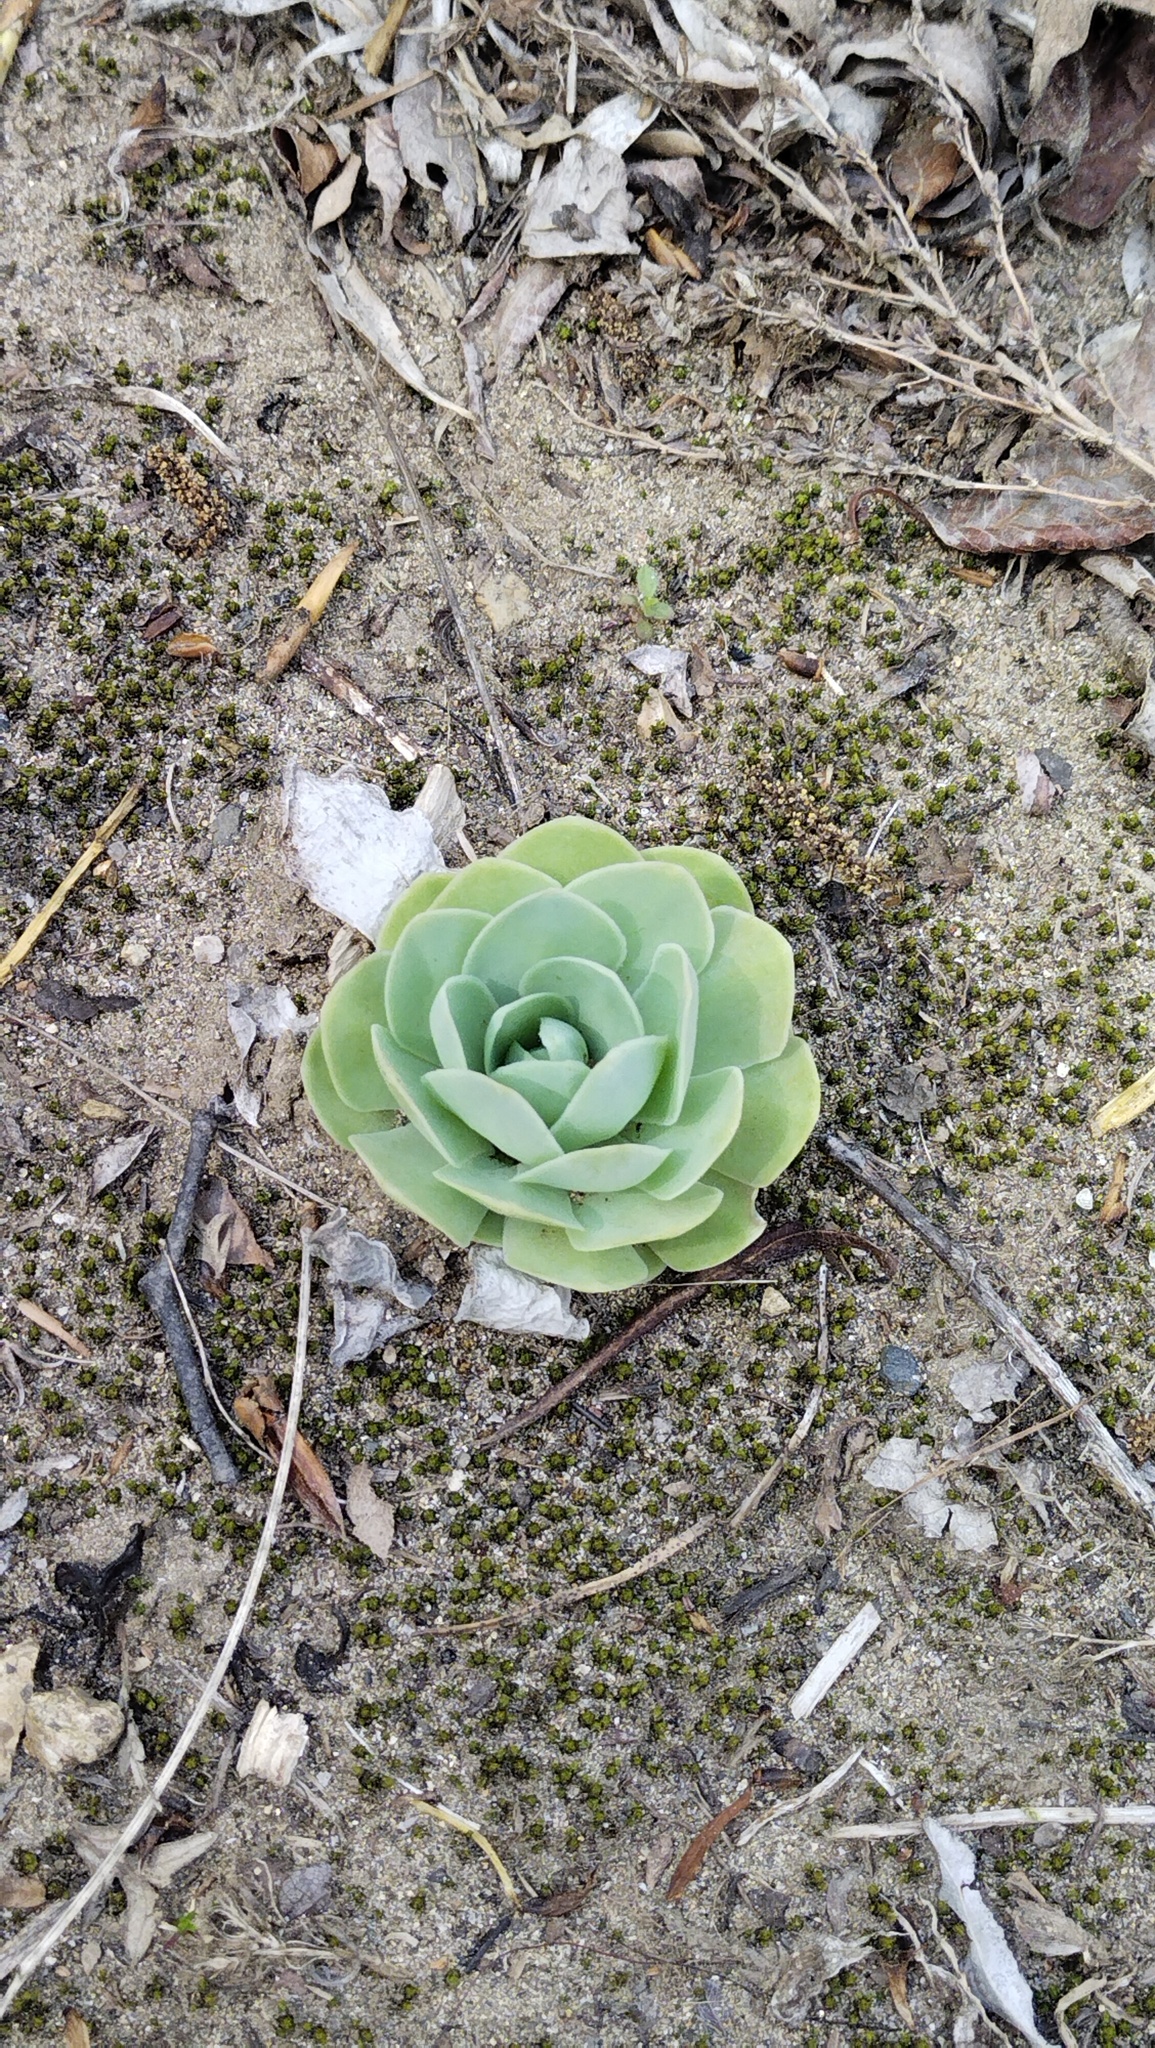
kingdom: Plantae
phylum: Tracheophyta
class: Magnoliopsida
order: Saxifragales
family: Crassulaceae
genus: Orostachys
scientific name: Orostachys malacophylla
